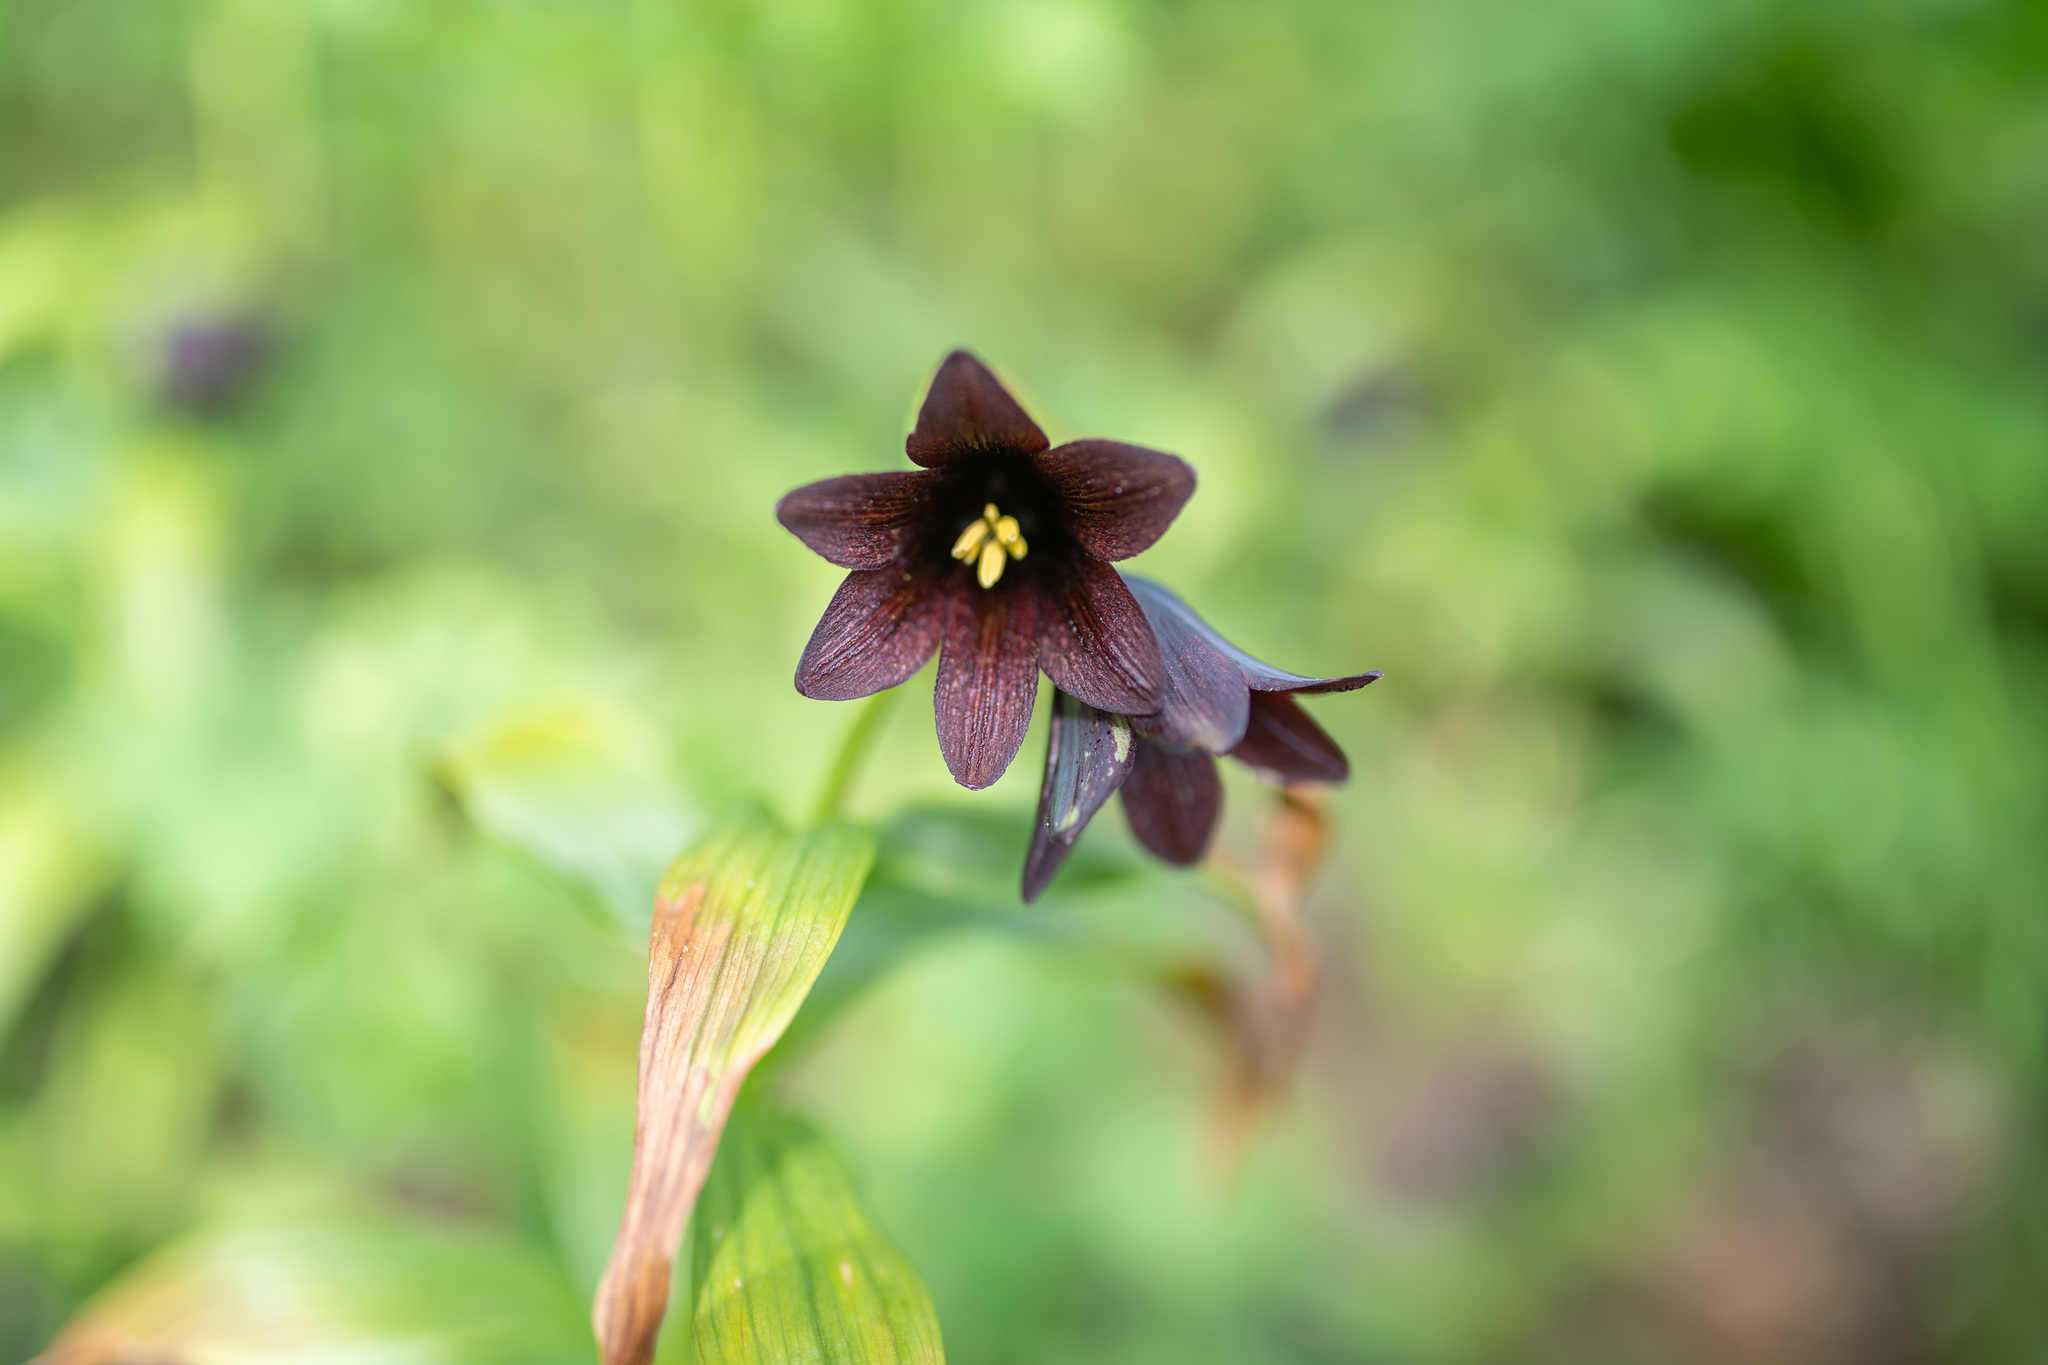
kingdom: Plantae
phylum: Tracheophyta
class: Liliopsida
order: Liliales
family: Liliaceae
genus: Fritillaria
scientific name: Fritillaria camschatcensis
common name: Kamchatka fritillary
